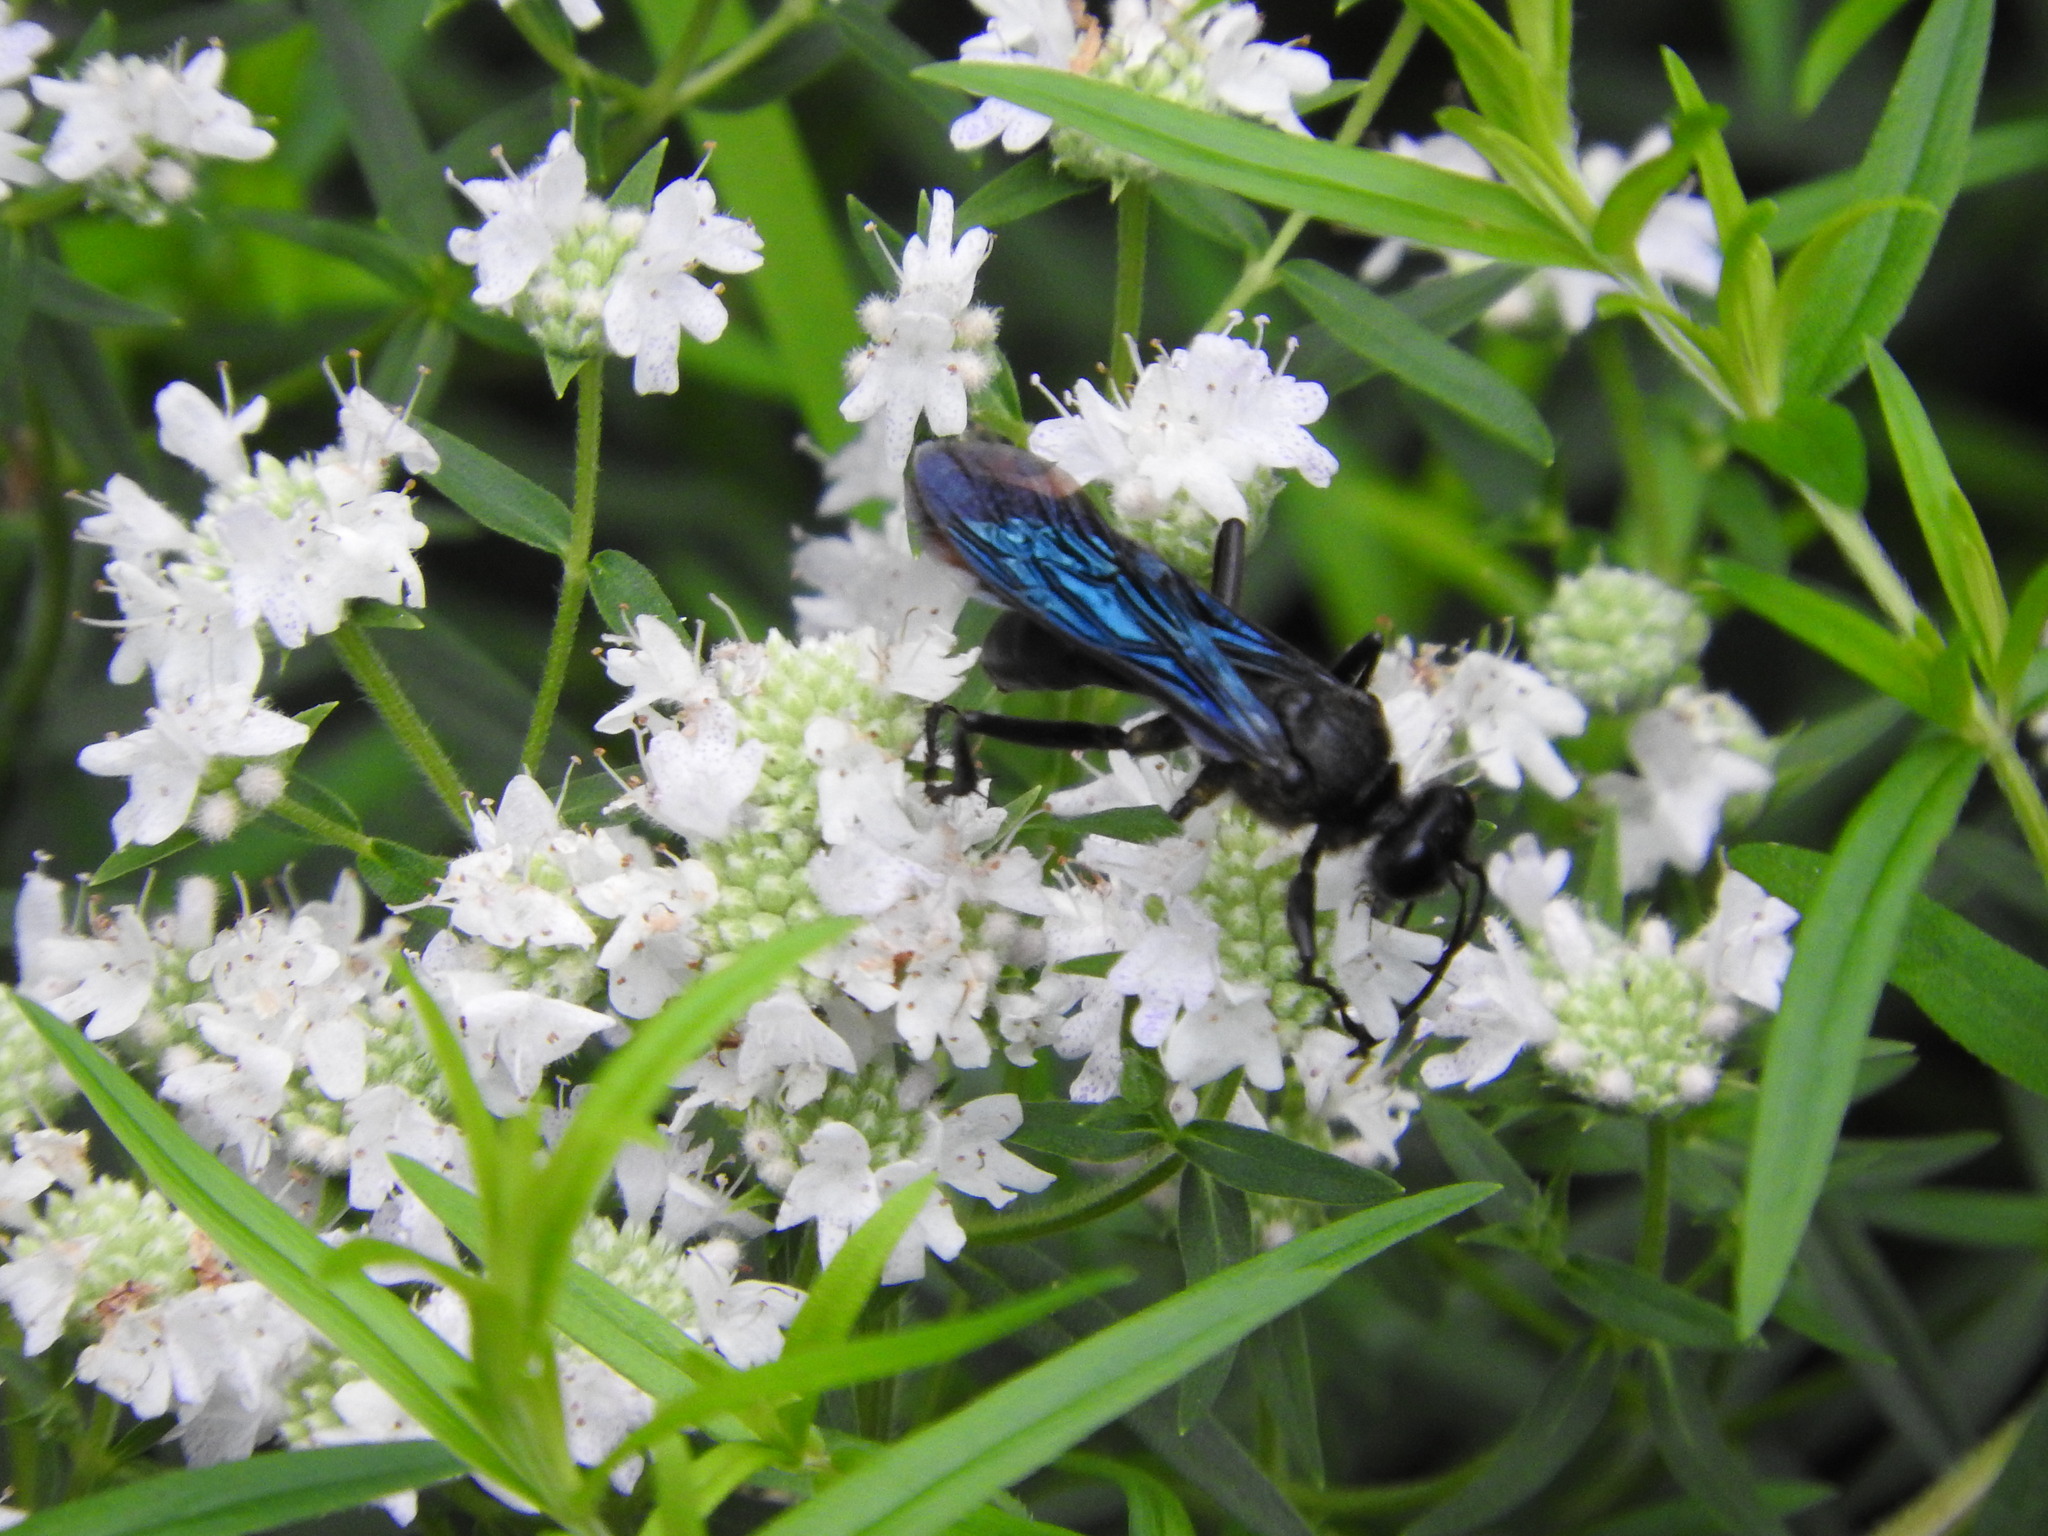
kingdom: Animalia
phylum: Arthropoda
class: Insecta
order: Hymenoptera
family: Sphecidae
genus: Sphex
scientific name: Sphex pensylvanicus
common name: Great black digger wasp
